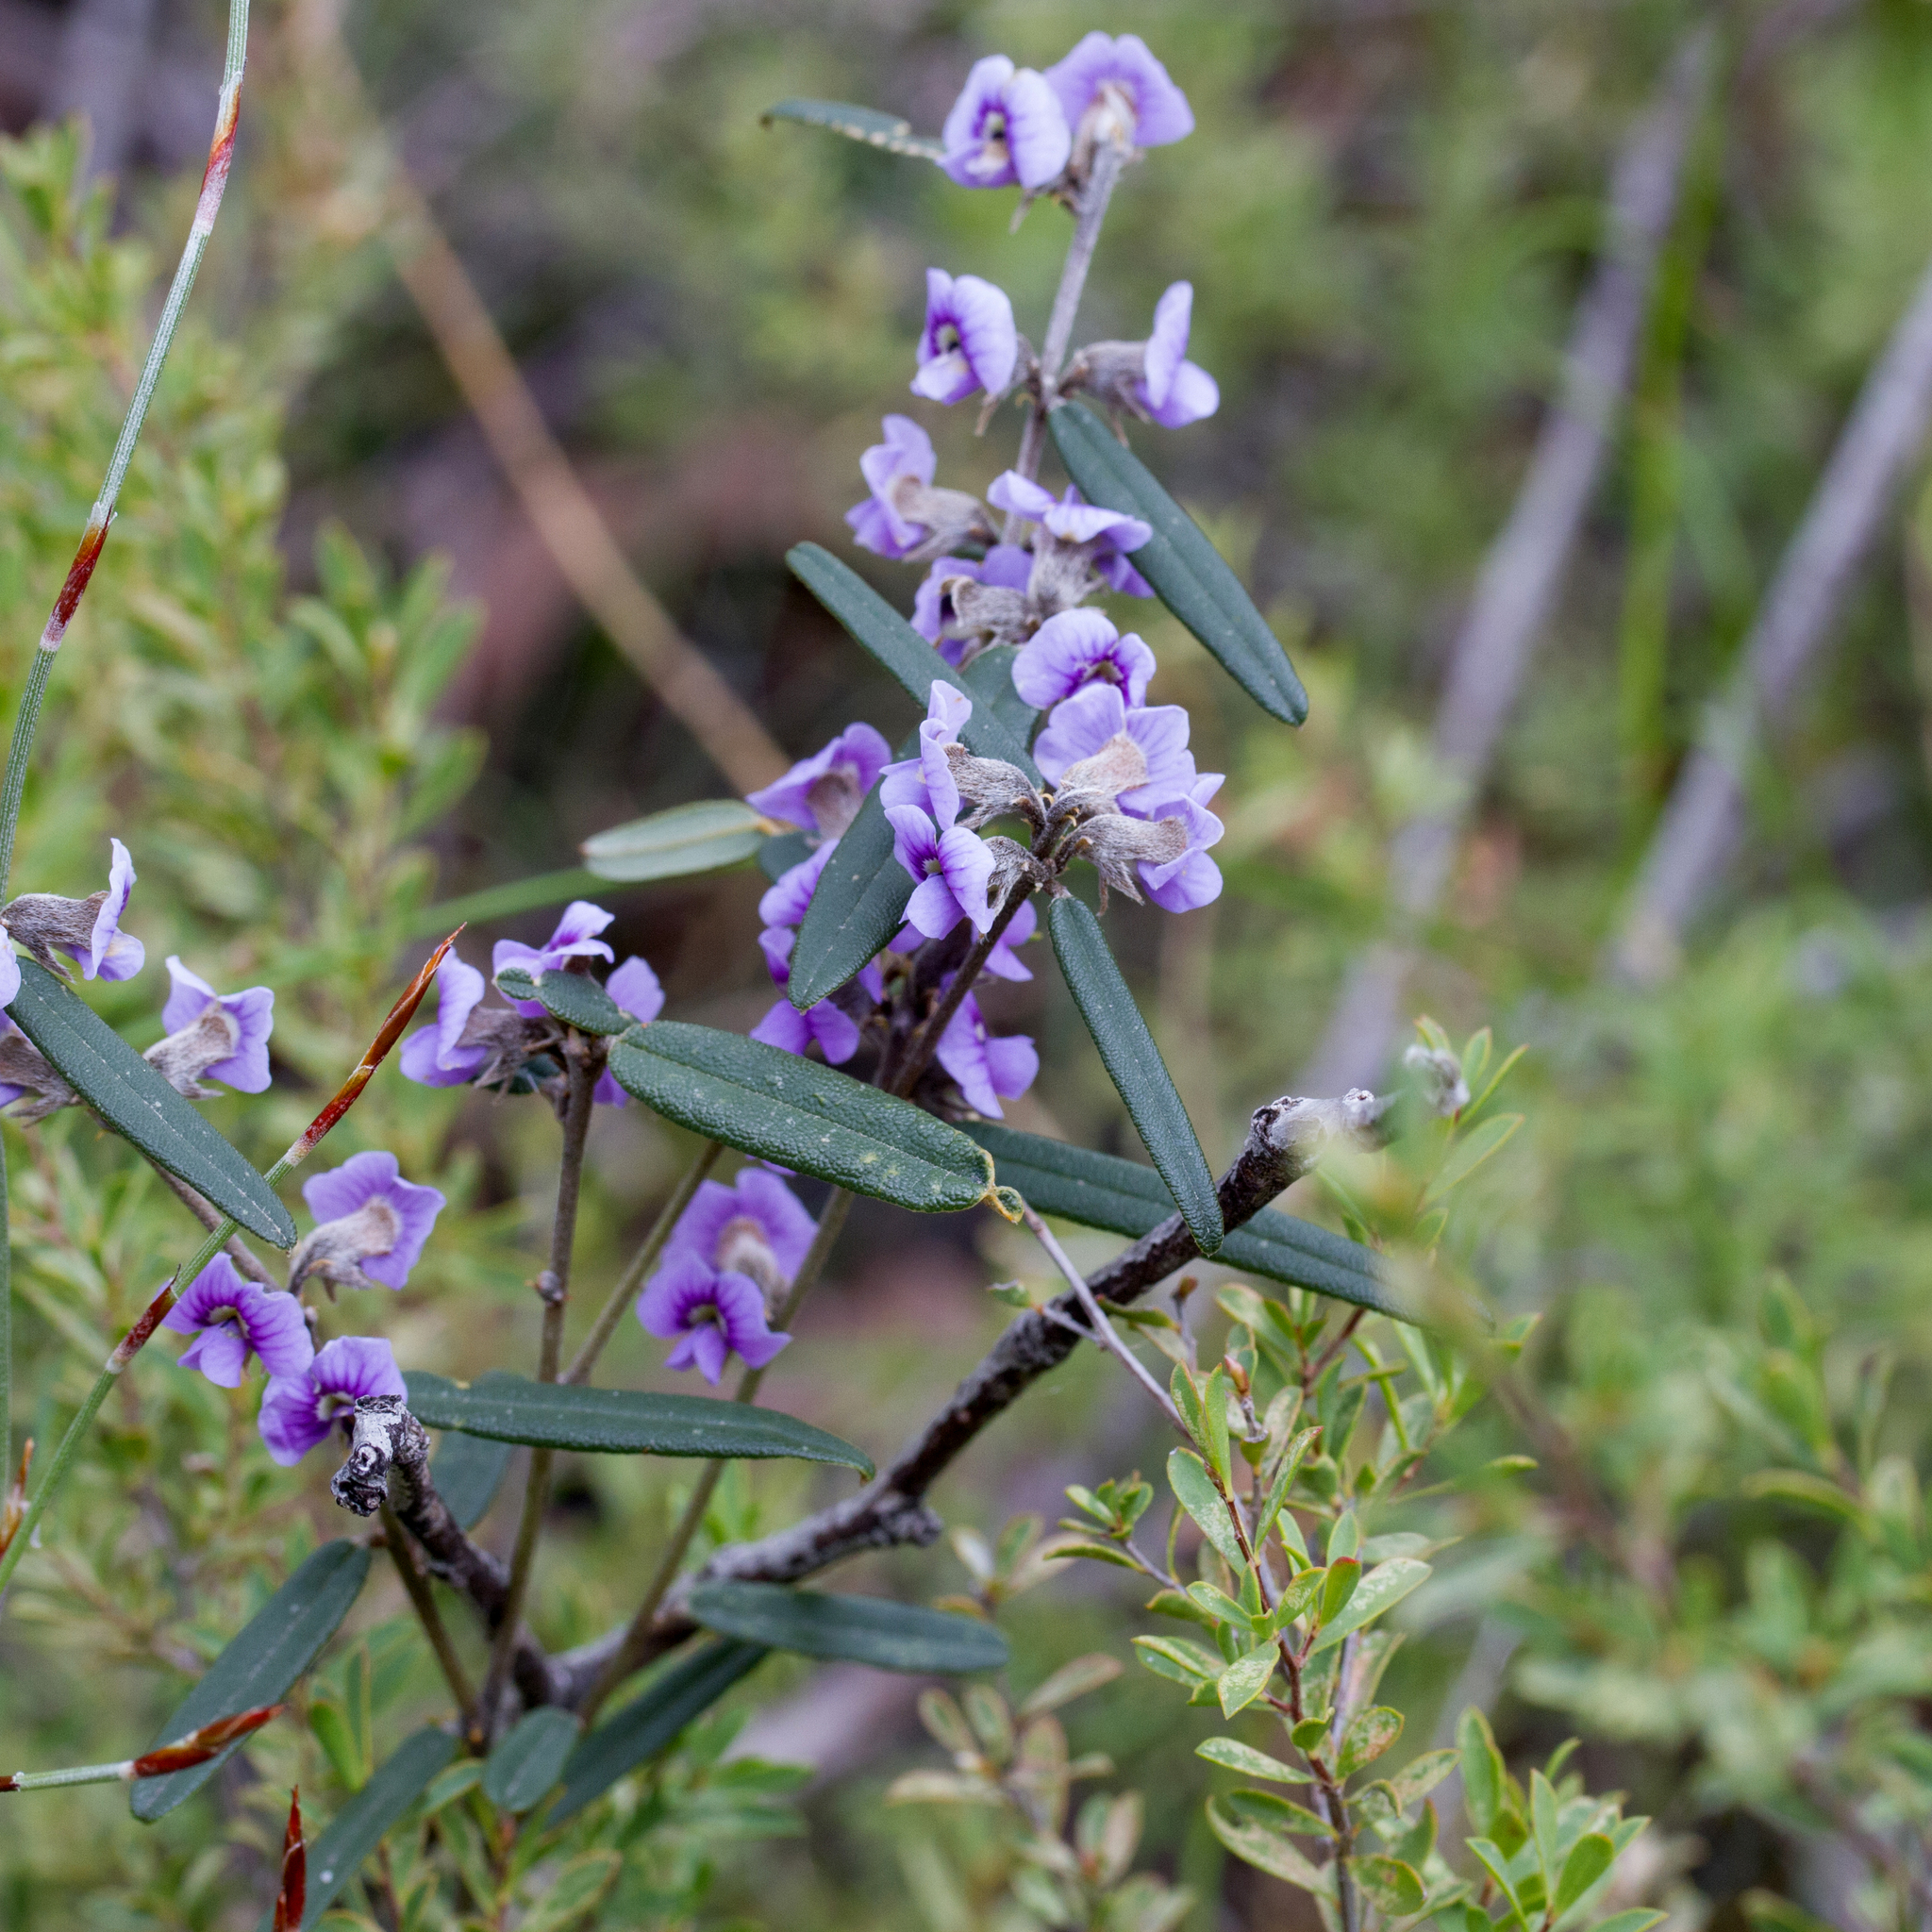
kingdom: Plantae
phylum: Tracheophyta
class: Magnoliopsida
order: Fabales
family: Fabaceae
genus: Hovea
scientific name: Hovea heterophylla
